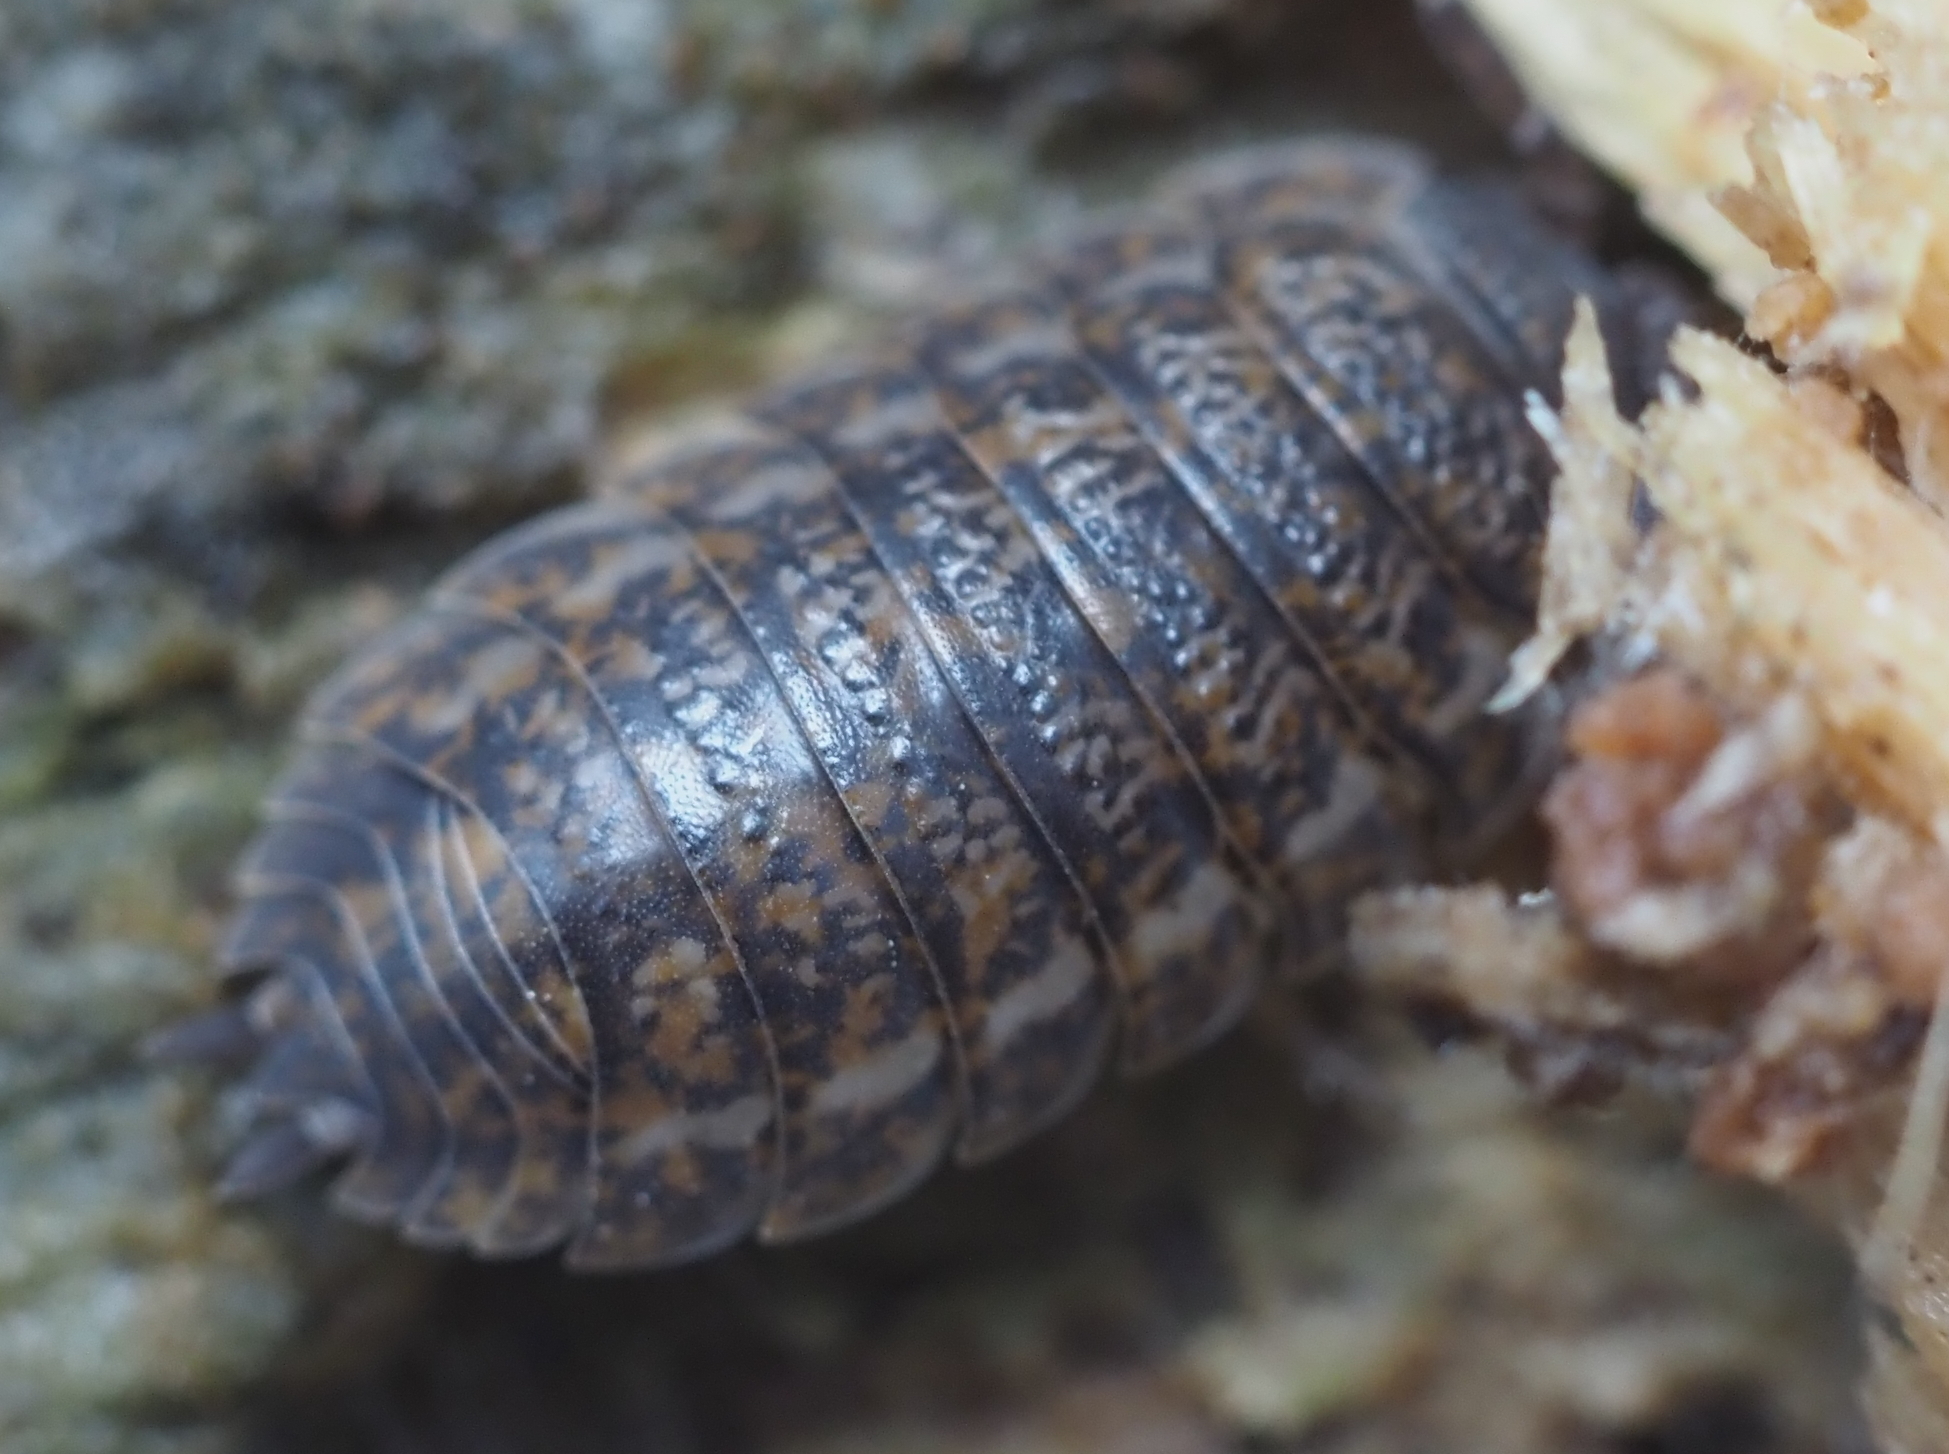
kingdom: Animalia
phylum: Arthropoda
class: Malacostraca
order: Isopoda
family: Trachelipodidae
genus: Trachelipus
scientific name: Trachelipus rathkii
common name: Isopod
